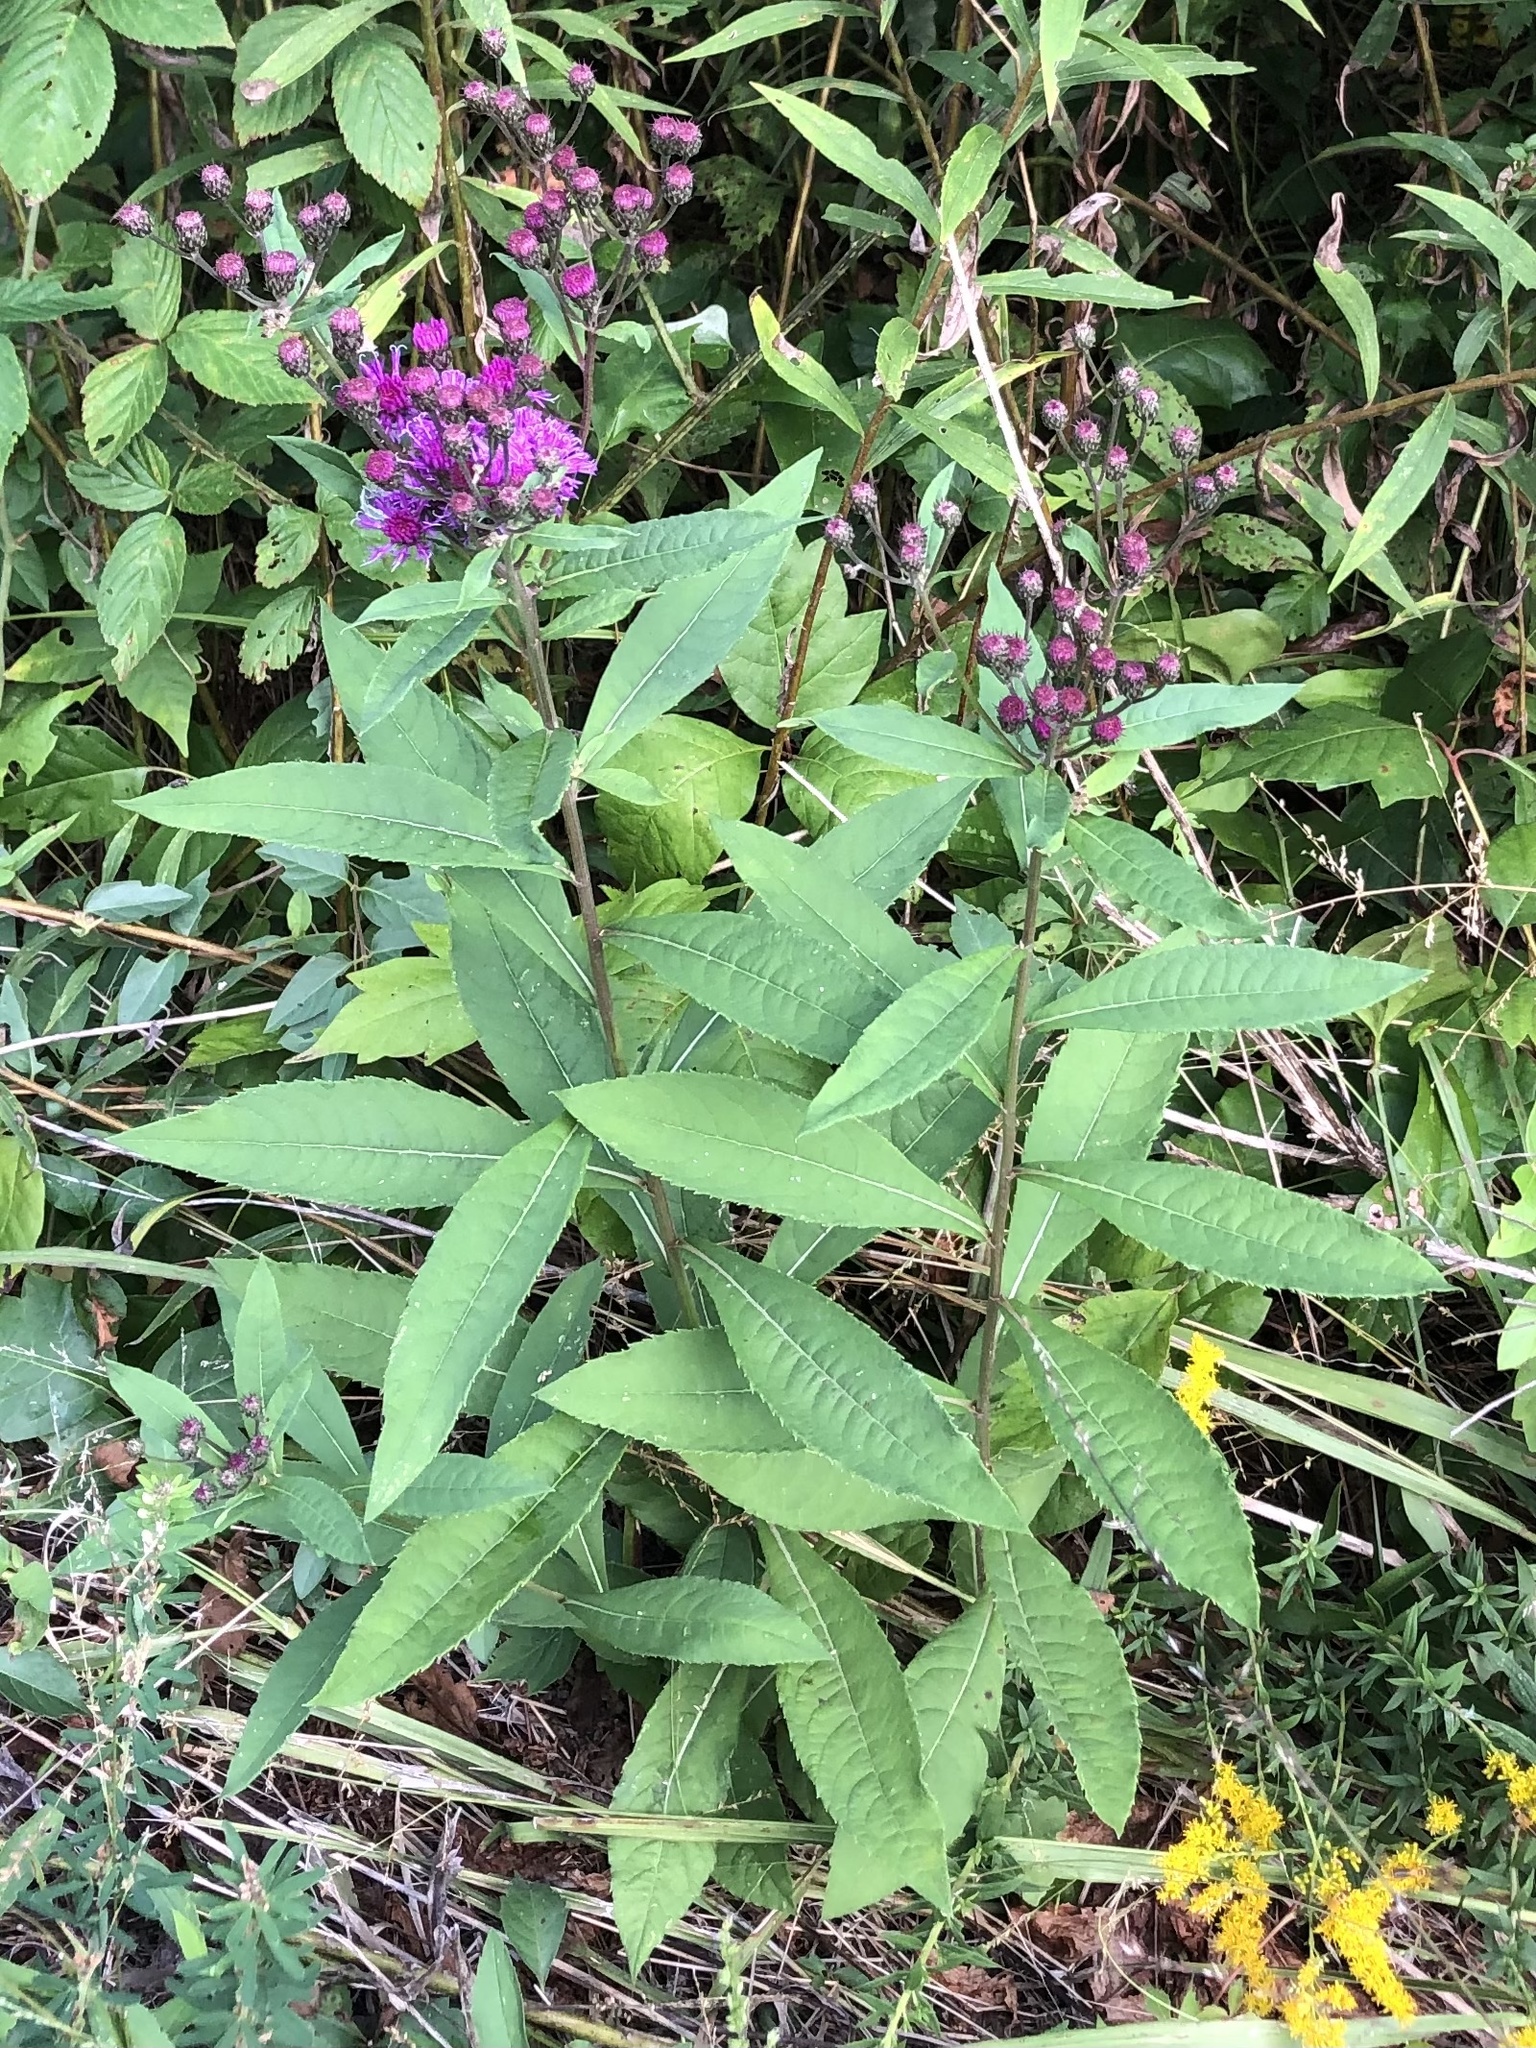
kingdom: Plantae
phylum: Tracheophyta
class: Magnoliopsida
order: Asterales
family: Asteraceae
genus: Vernonia
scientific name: Vernonia noveboracensis
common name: New york ironweed
